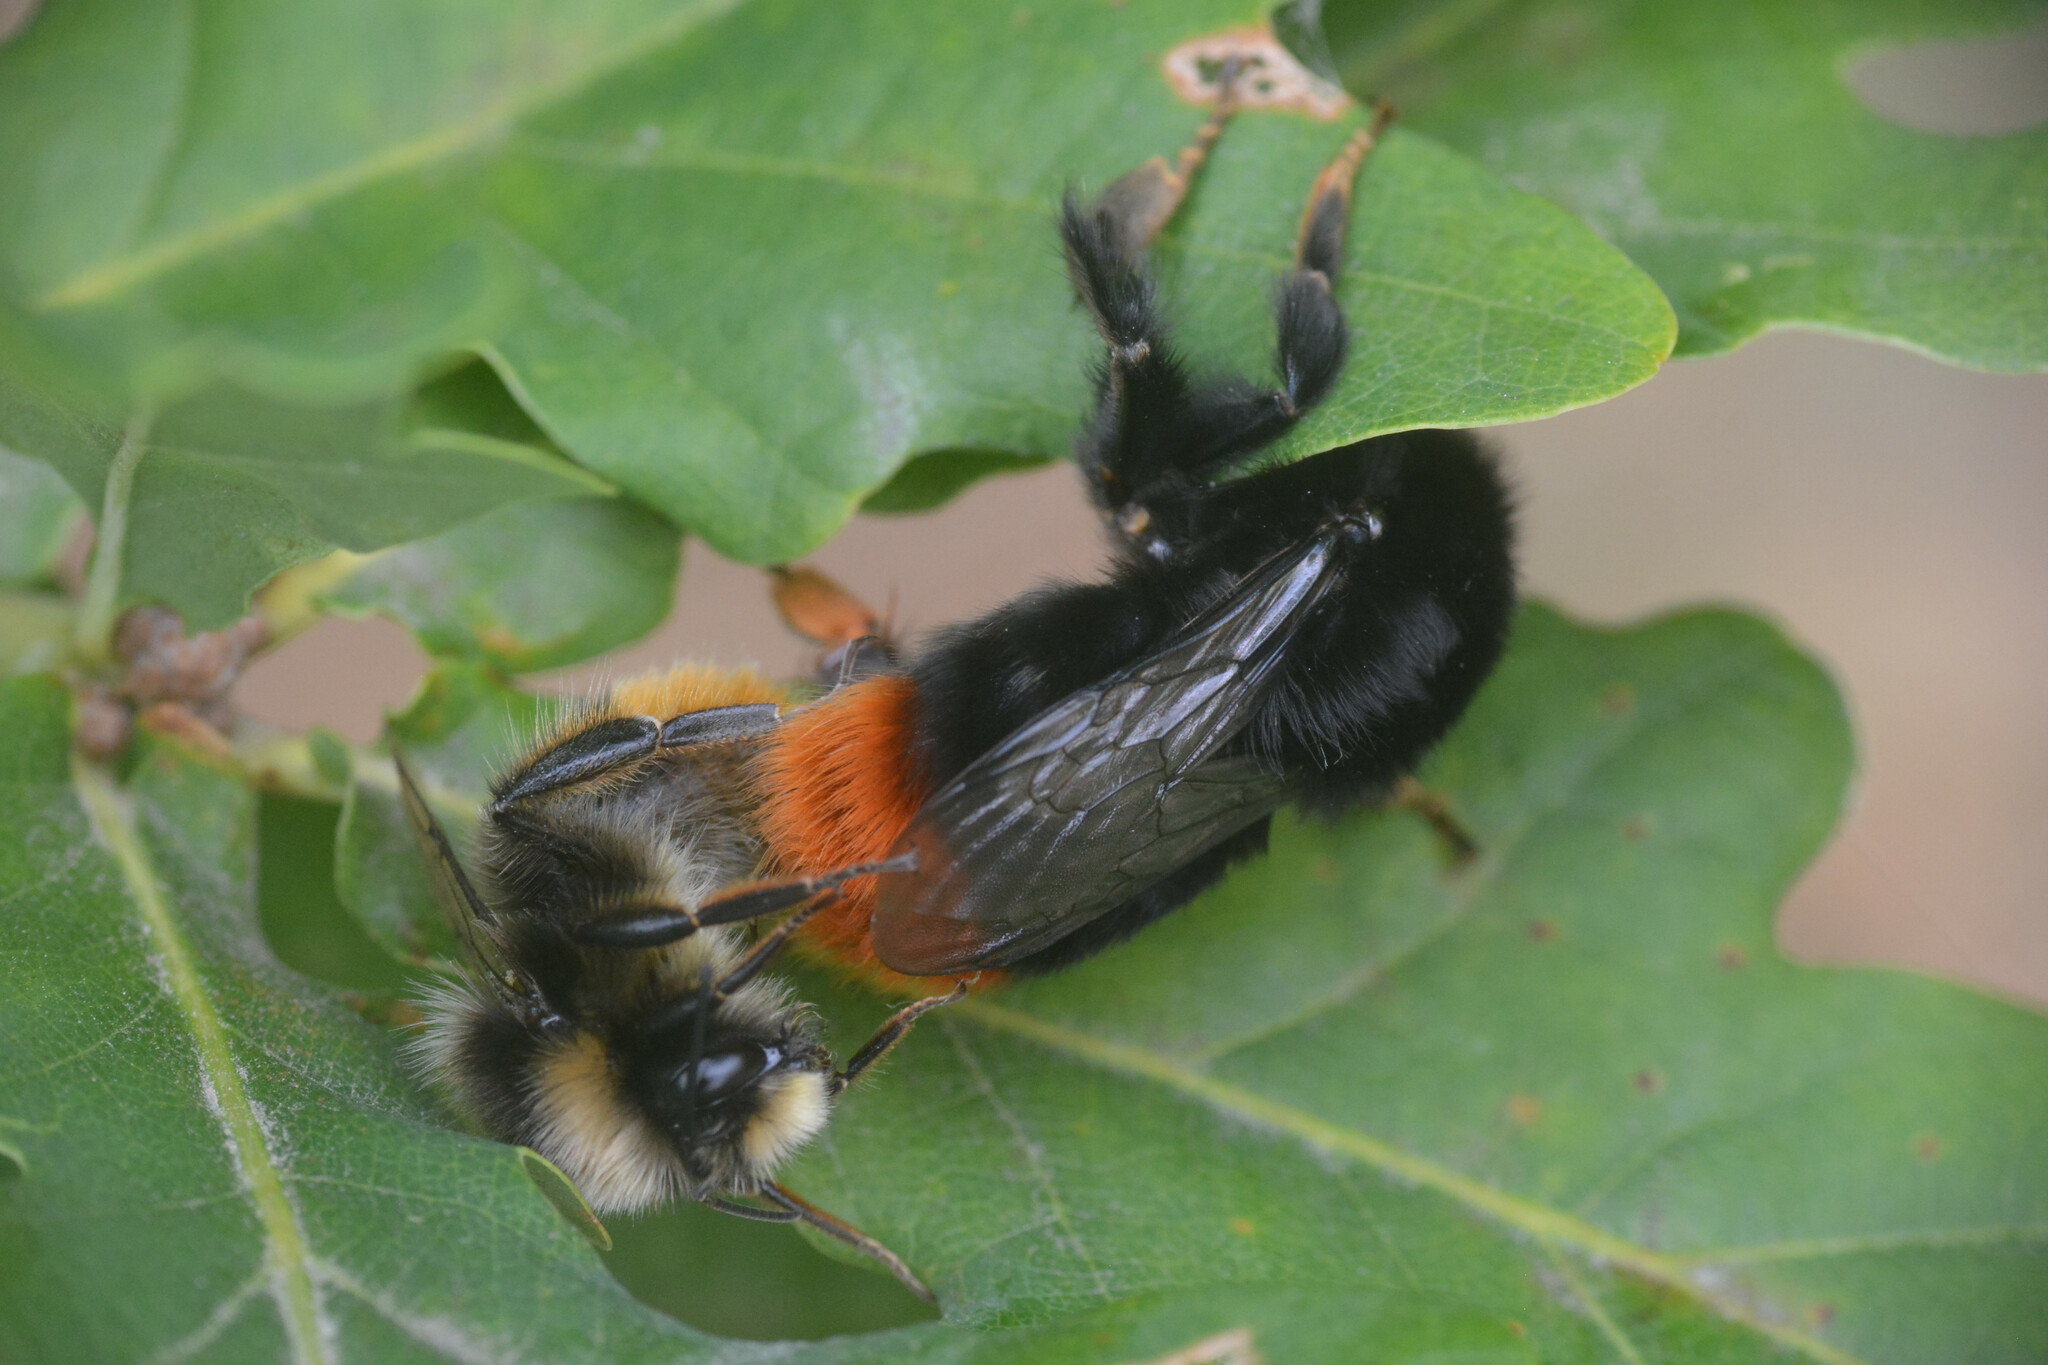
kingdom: Animalia
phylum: Arthropoda
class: Insecta
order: Hymenoptera
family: Apidae
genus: Bombus
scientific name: Bombus lapidarius
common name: Large red-tailed humble-bee
